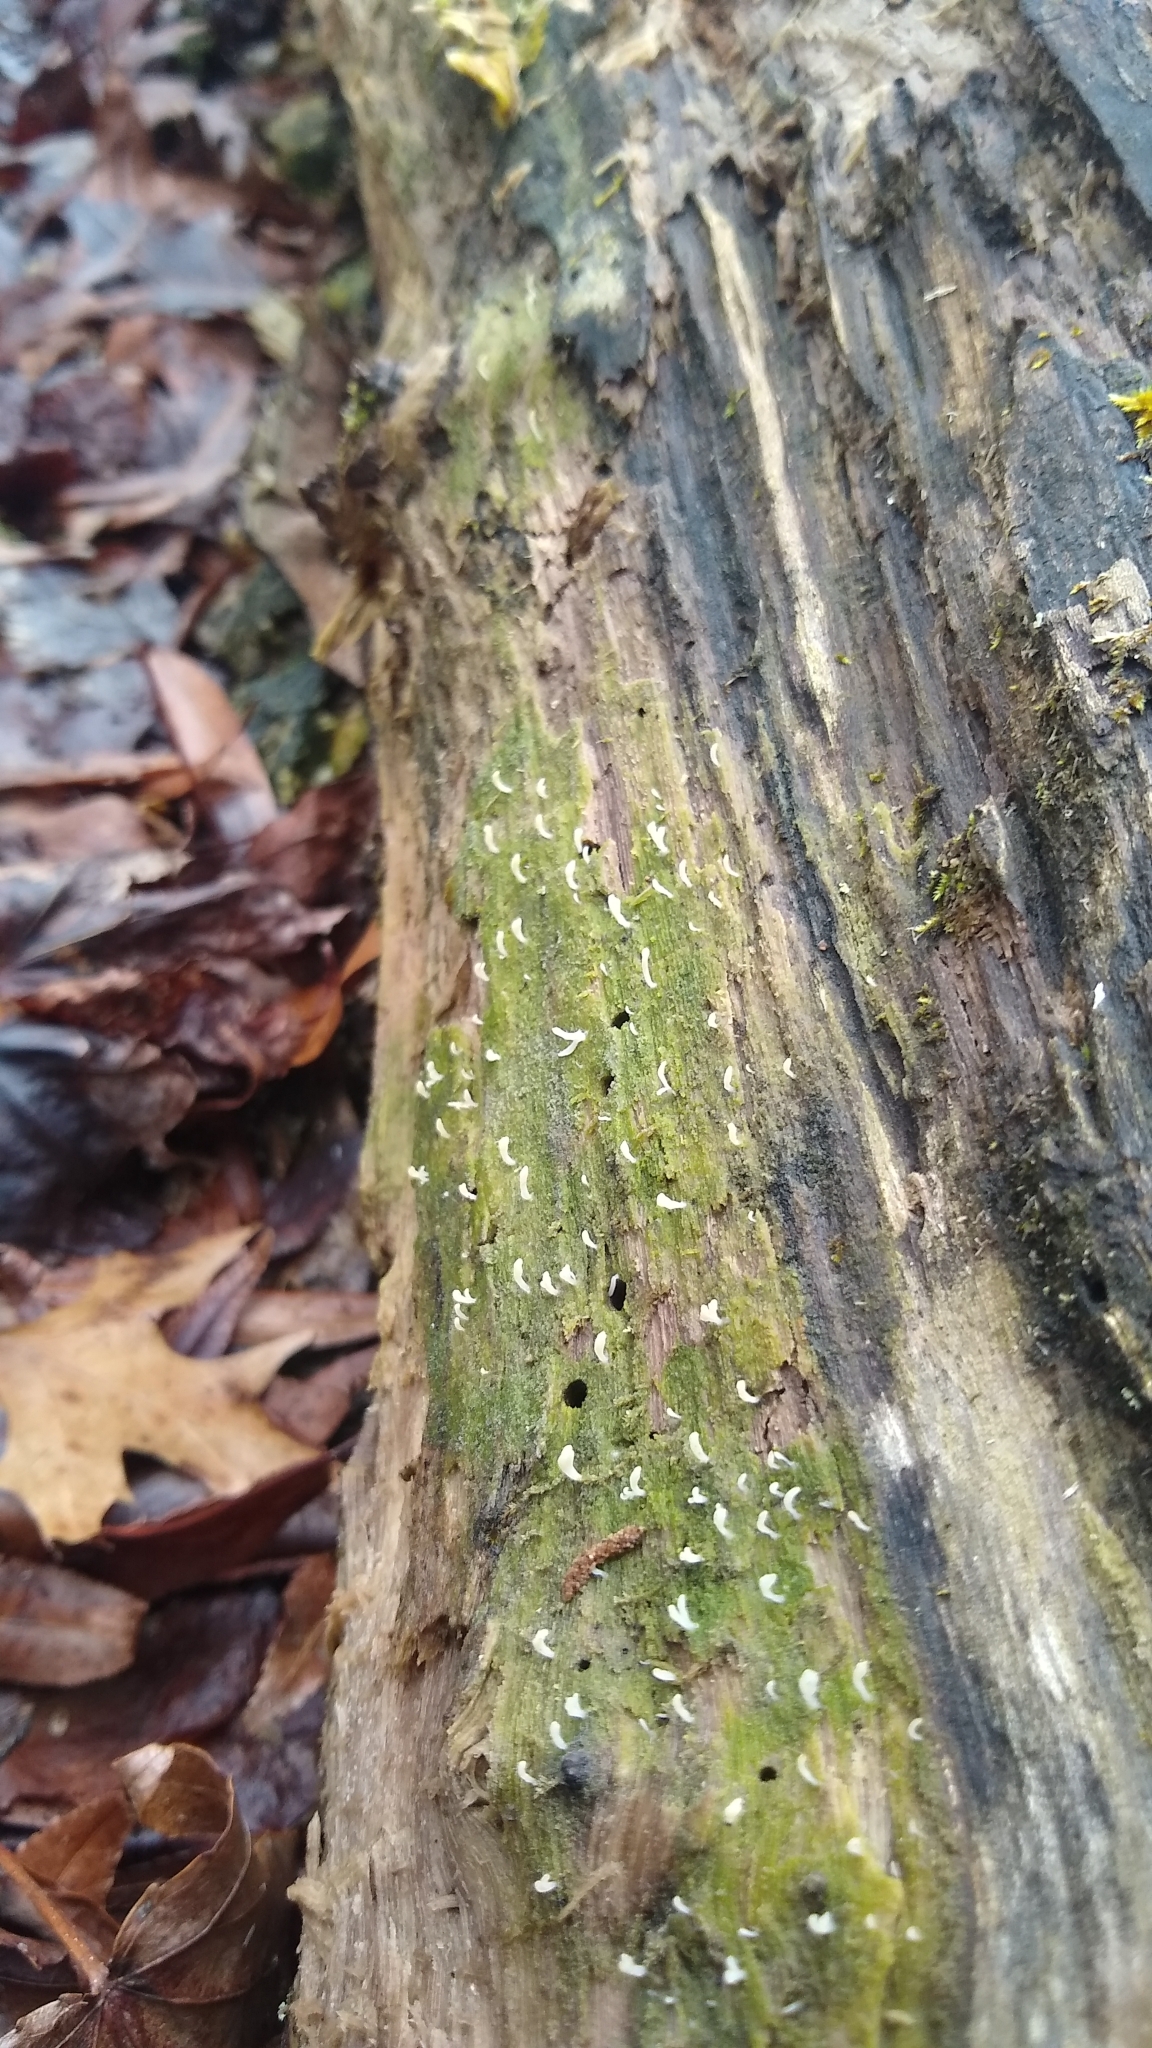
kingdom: Fungi
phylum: Basidiomycota
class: Agaricomycetes
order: Cantharellales
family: Hydnaceae
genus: Multiclavula
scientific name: Multiclavula mucida
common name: White green-algae coral
